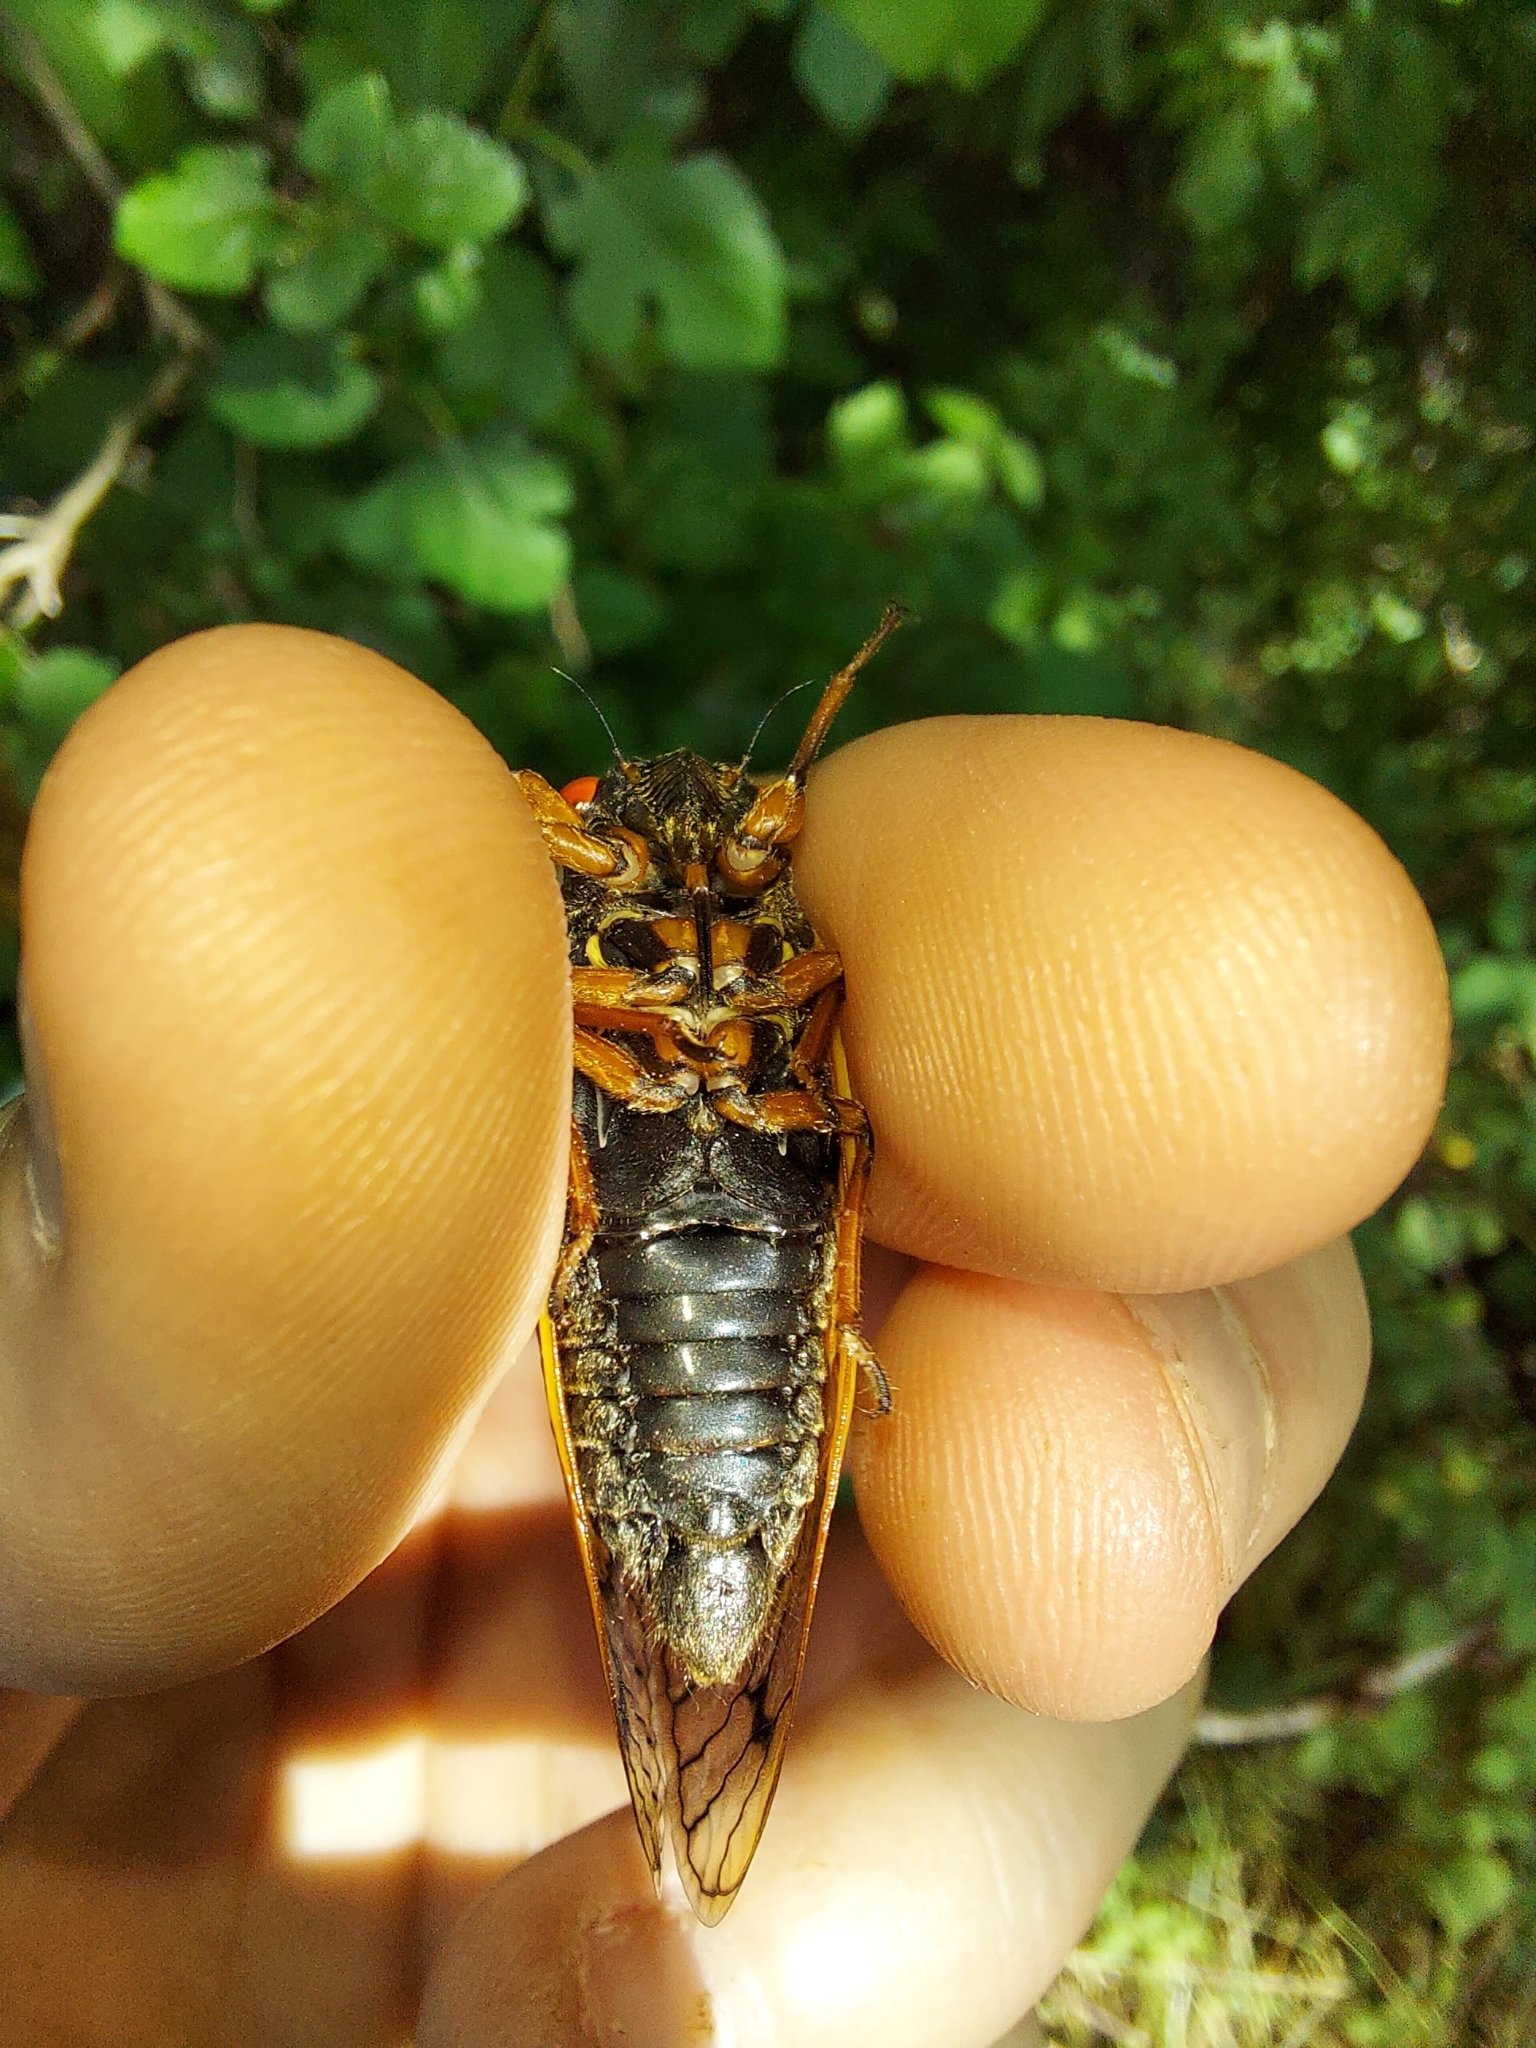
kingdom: Animalia
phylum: Arthropoda
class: Insecta
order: Hemiptera
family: Cicadidae
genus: Magicicada
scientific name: Magicicada cassini
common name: Cassin's 17-year cicada
